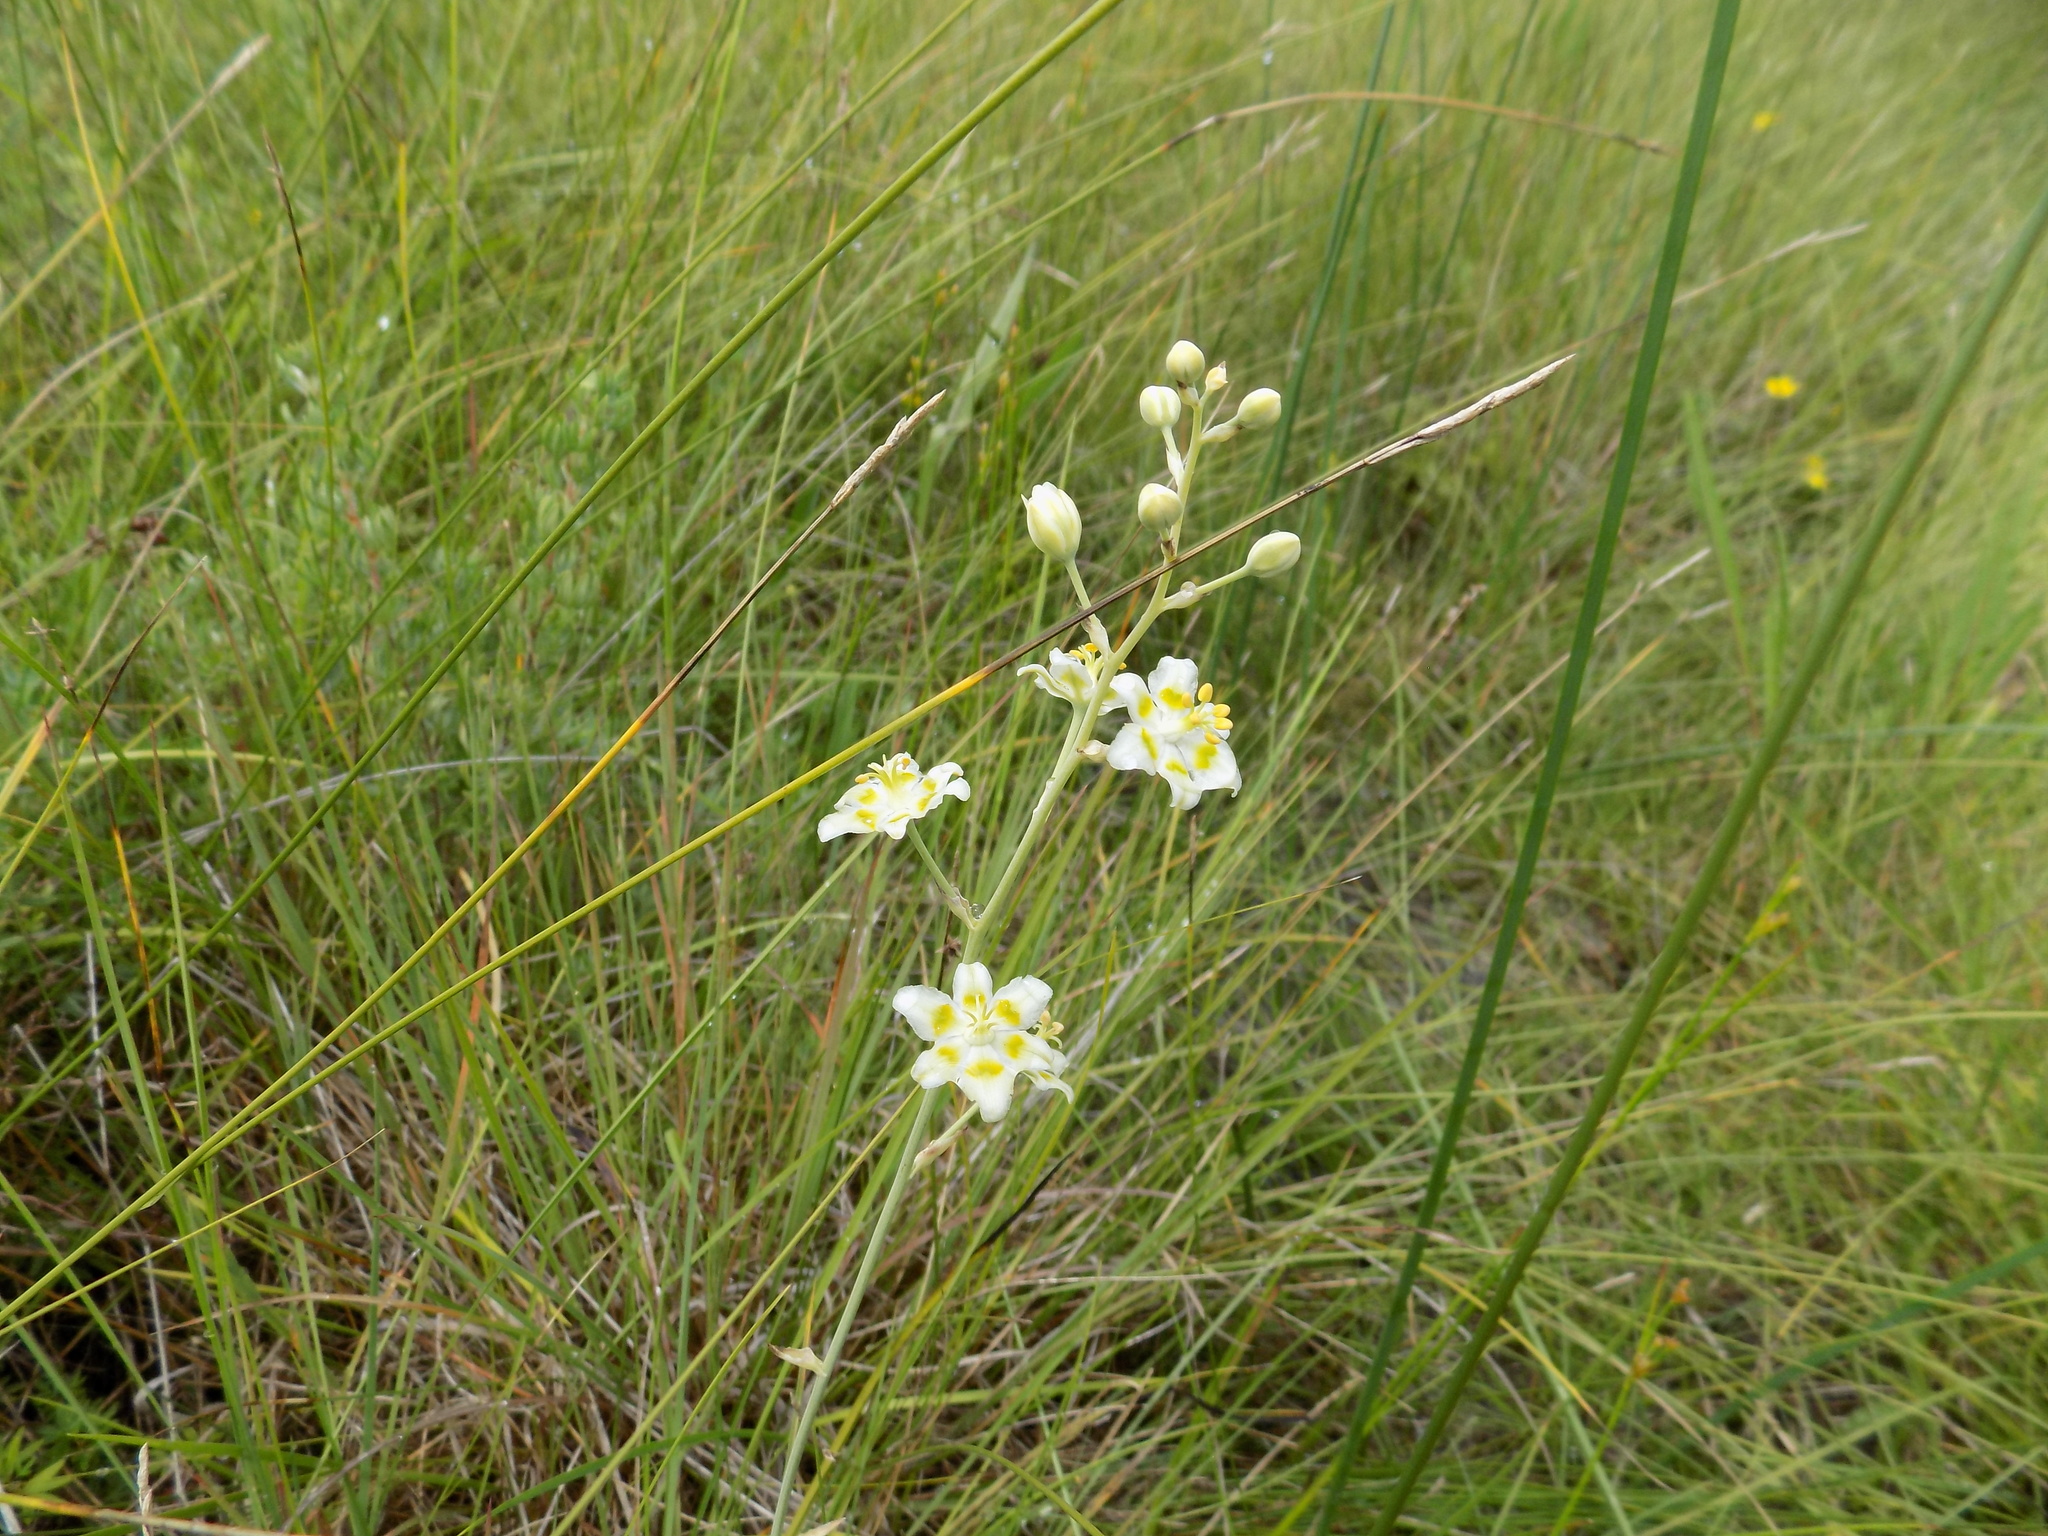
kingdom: Plantae
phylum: Tracheophyta
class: Liliopsida
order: Liliales
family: Melanthiaceae
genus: Anticlea
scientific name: Anticlea elegans
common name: Mountain death camas
